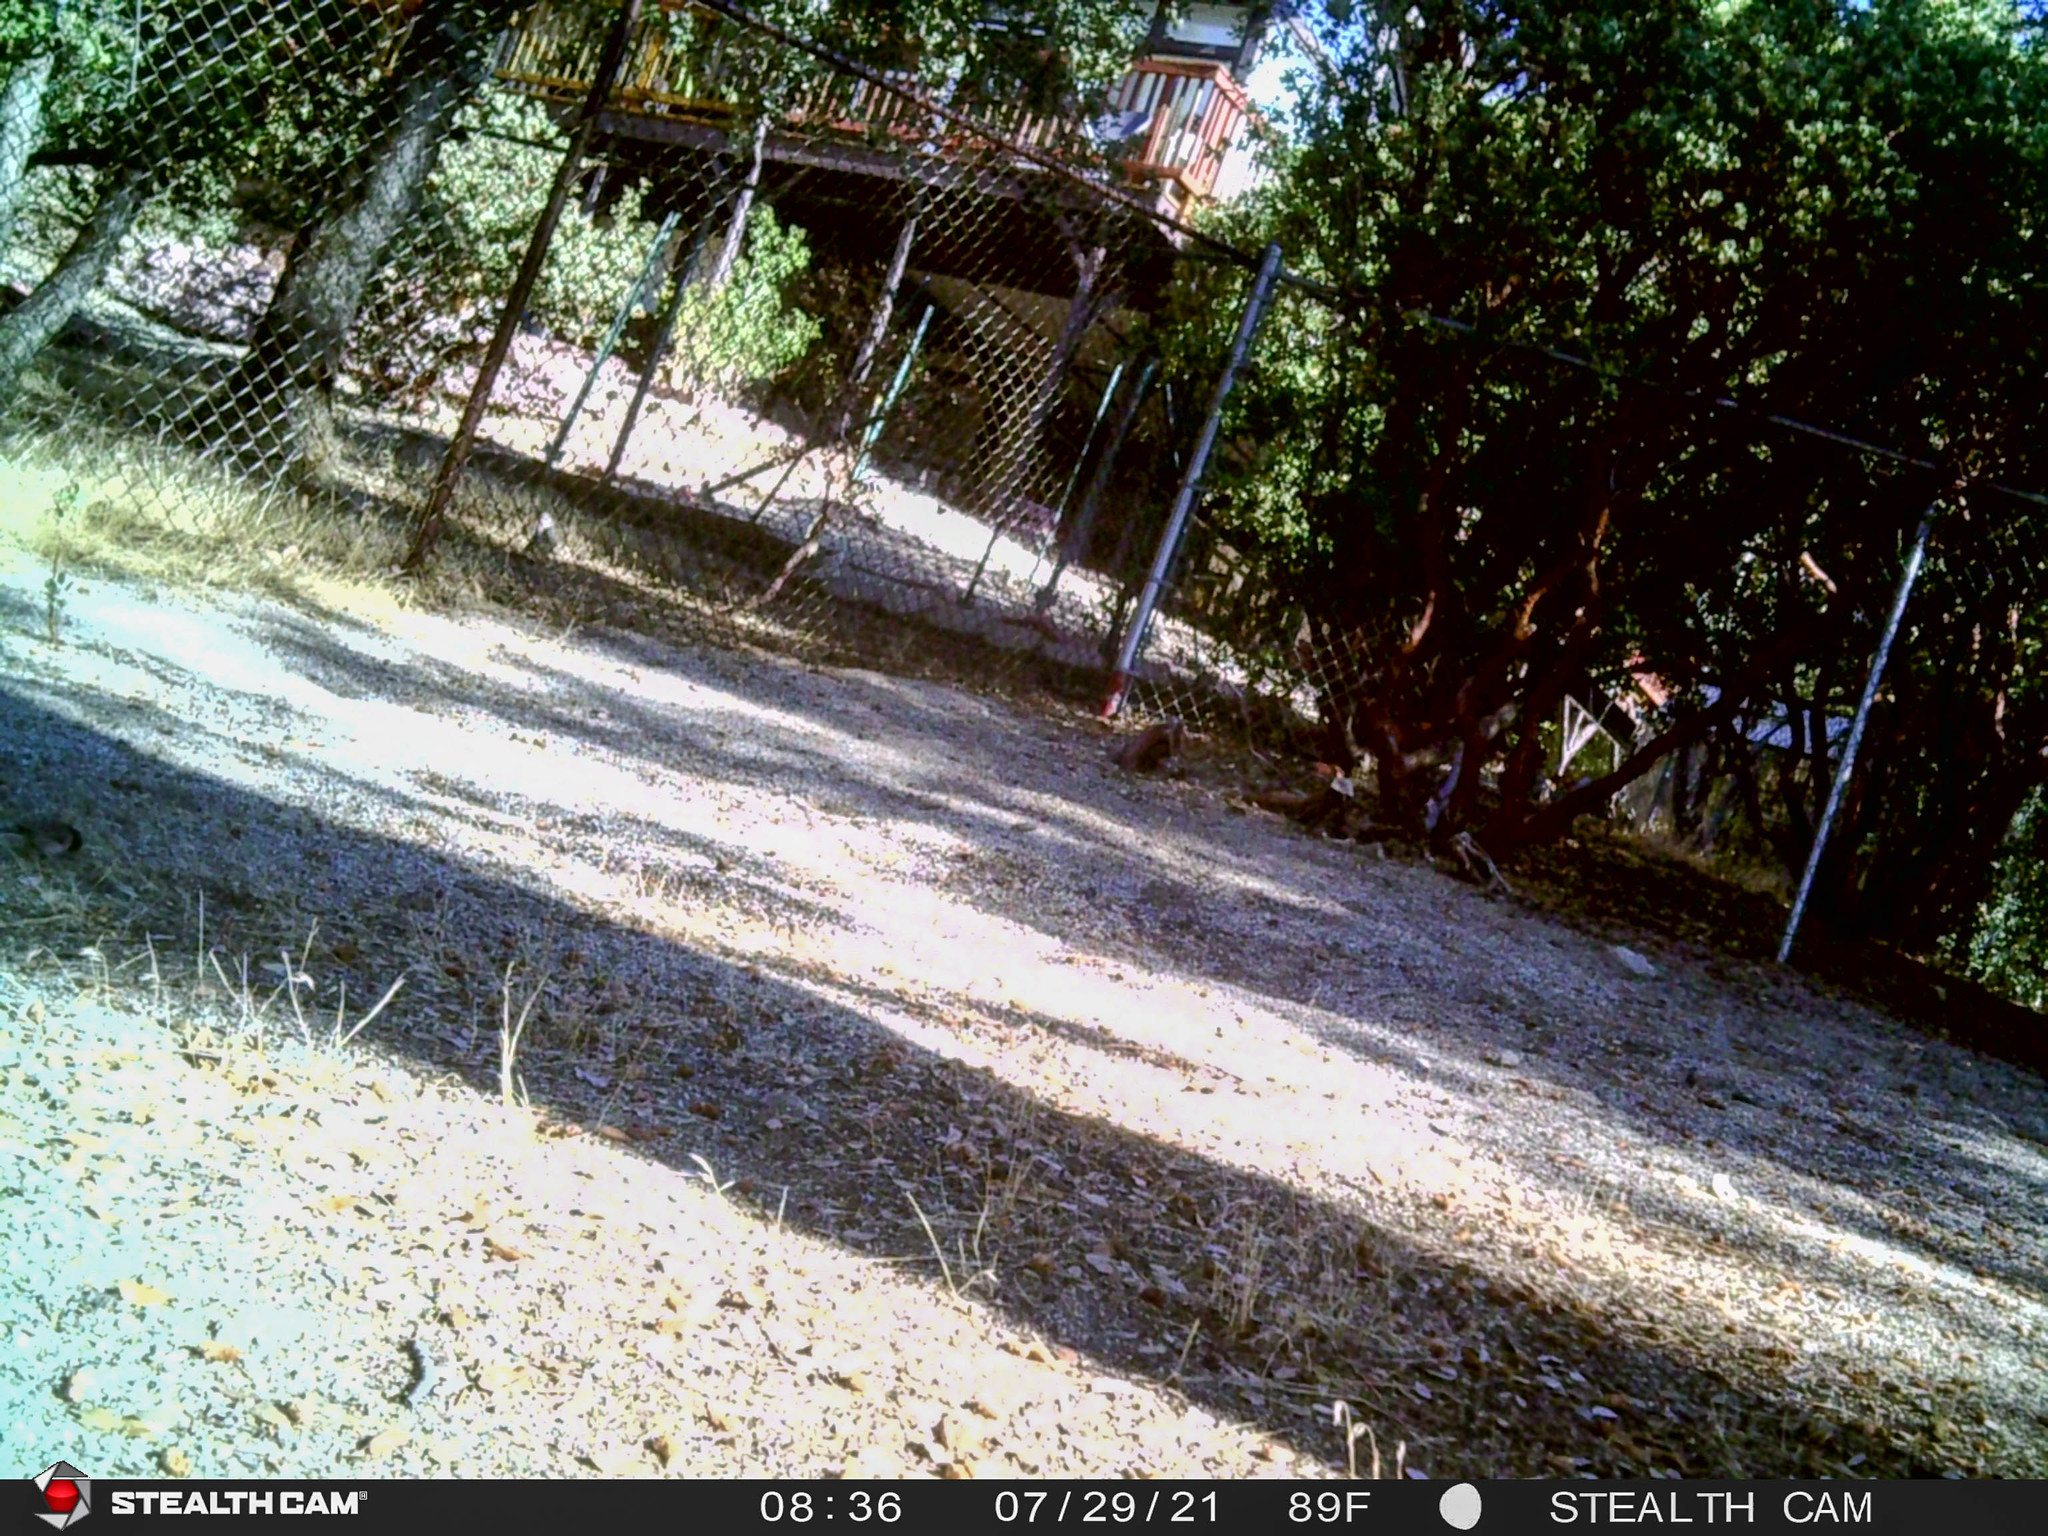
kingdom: Animalia
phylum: Chordata
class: Aves
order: Passeriformes
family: Passerellidae
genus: Junco
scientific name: Junco hyemalis
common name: Dark-eyed junco
